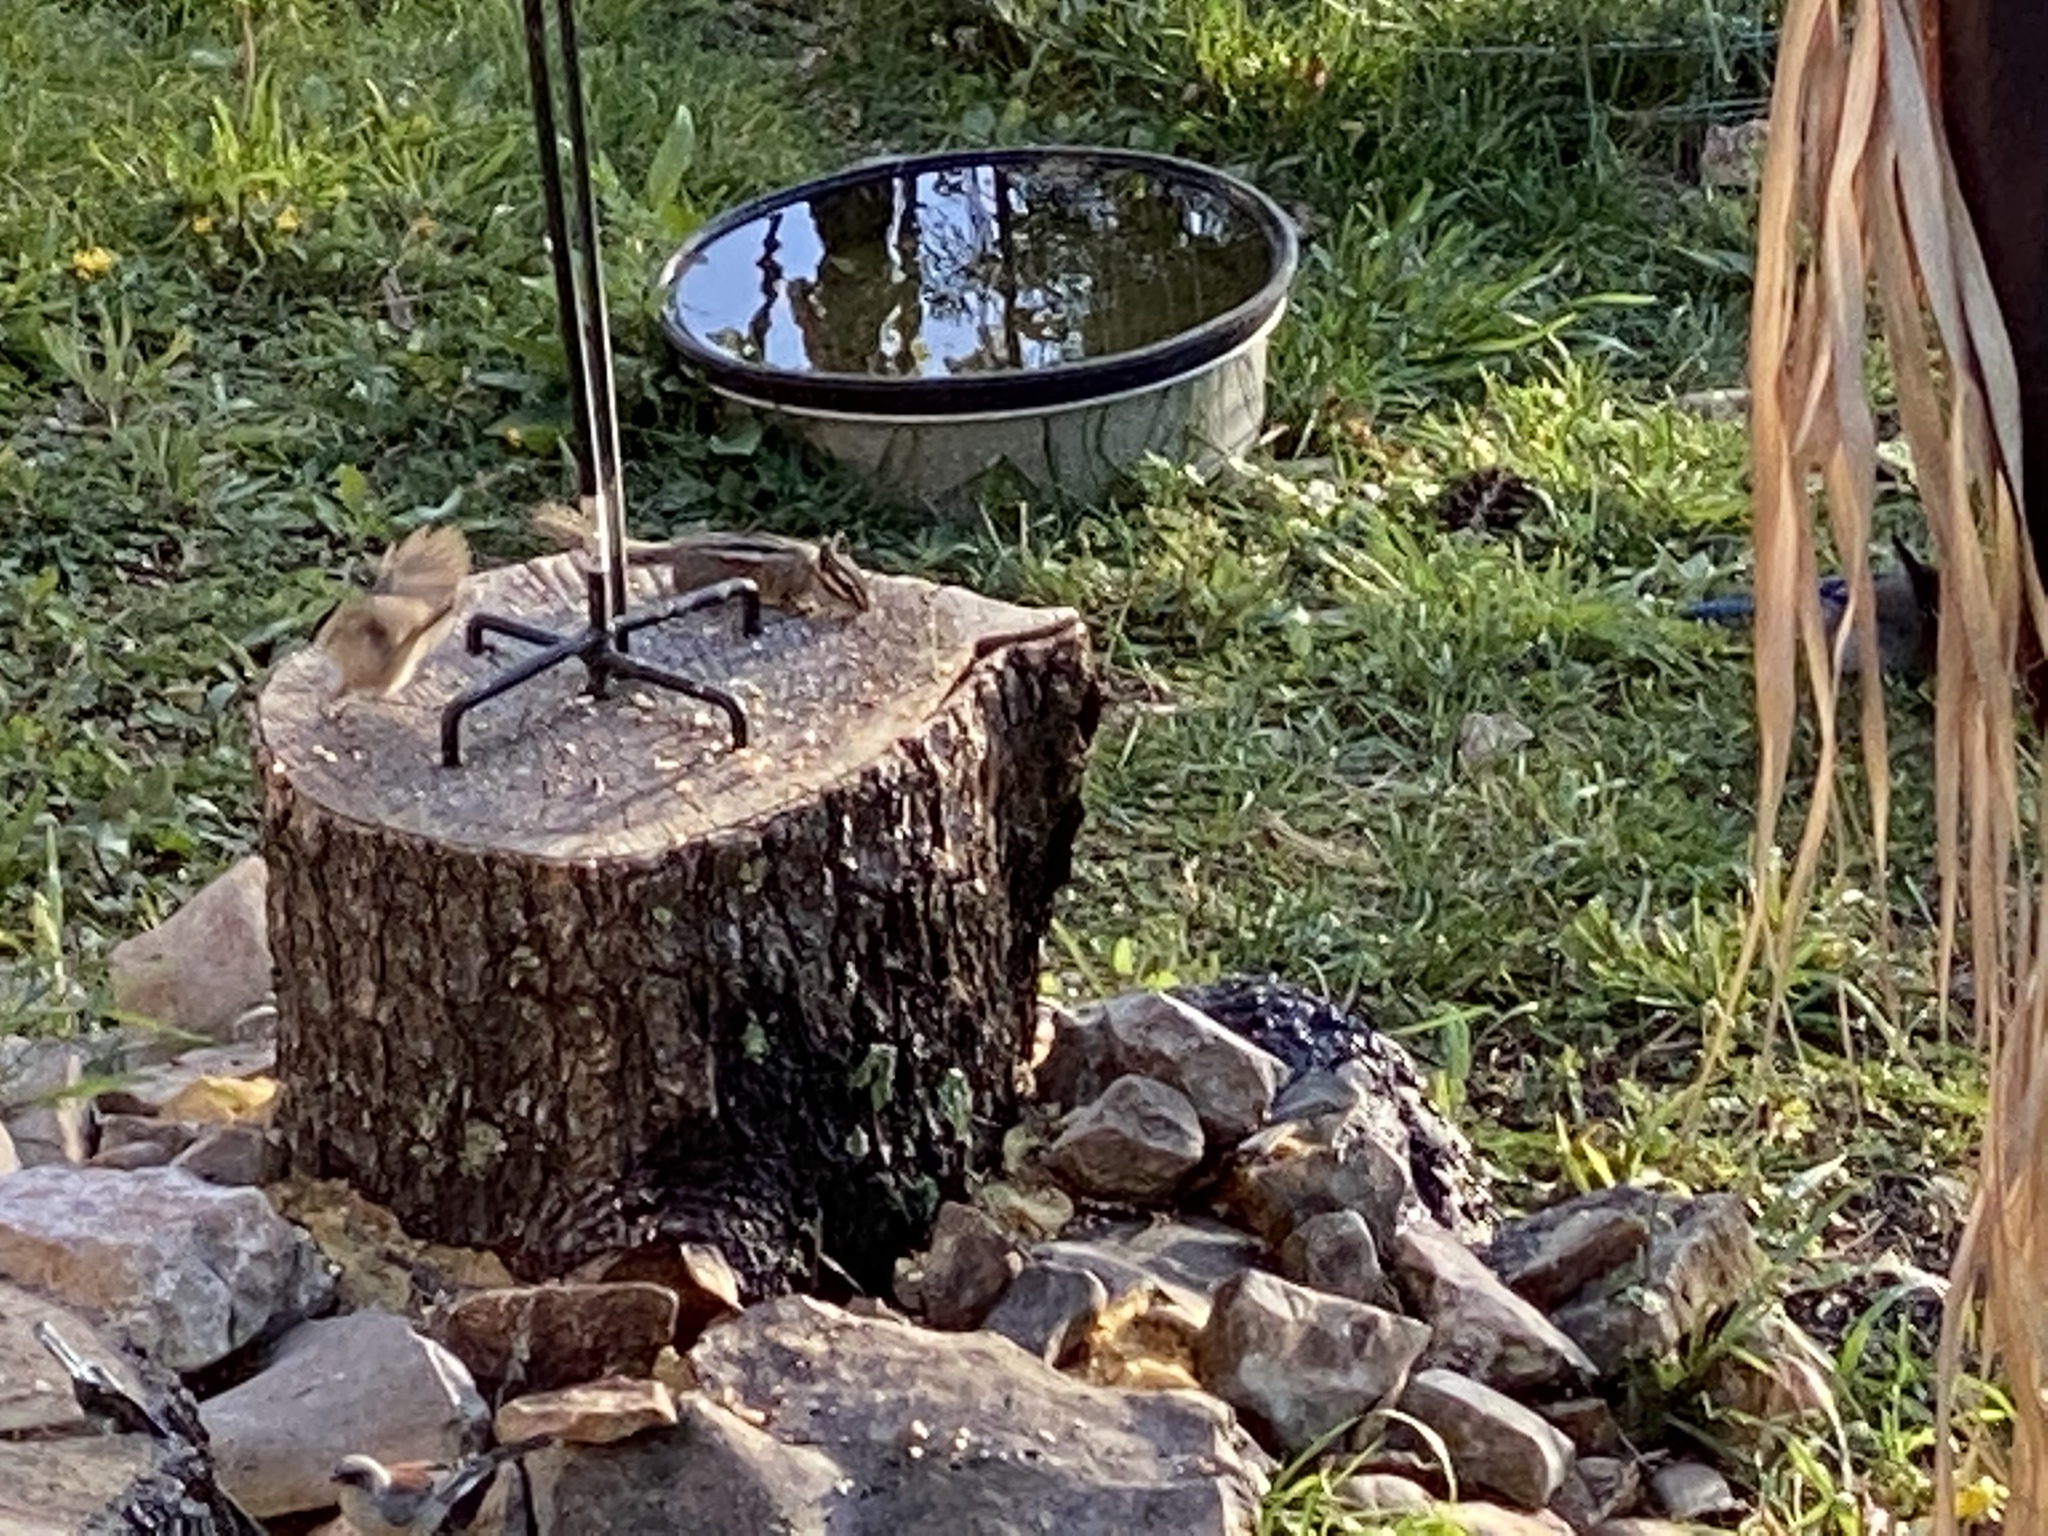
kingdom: Animalia
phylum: Chordata
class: Mammalia
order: Rodentia
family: Sciuridae
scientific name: Sciuridae
